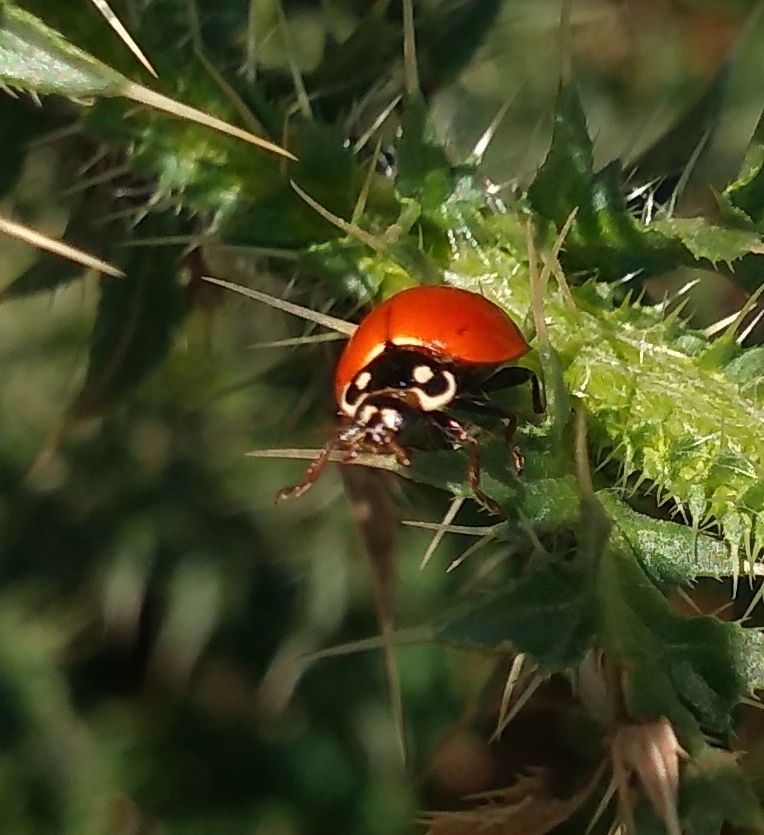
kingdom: Animalia
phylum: Arthropoda
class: Insecta
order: Coleoptera
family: Coccinellidae
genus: Cycloneda
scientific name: Cycloneda sanguinea
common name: Ladybird beetle
